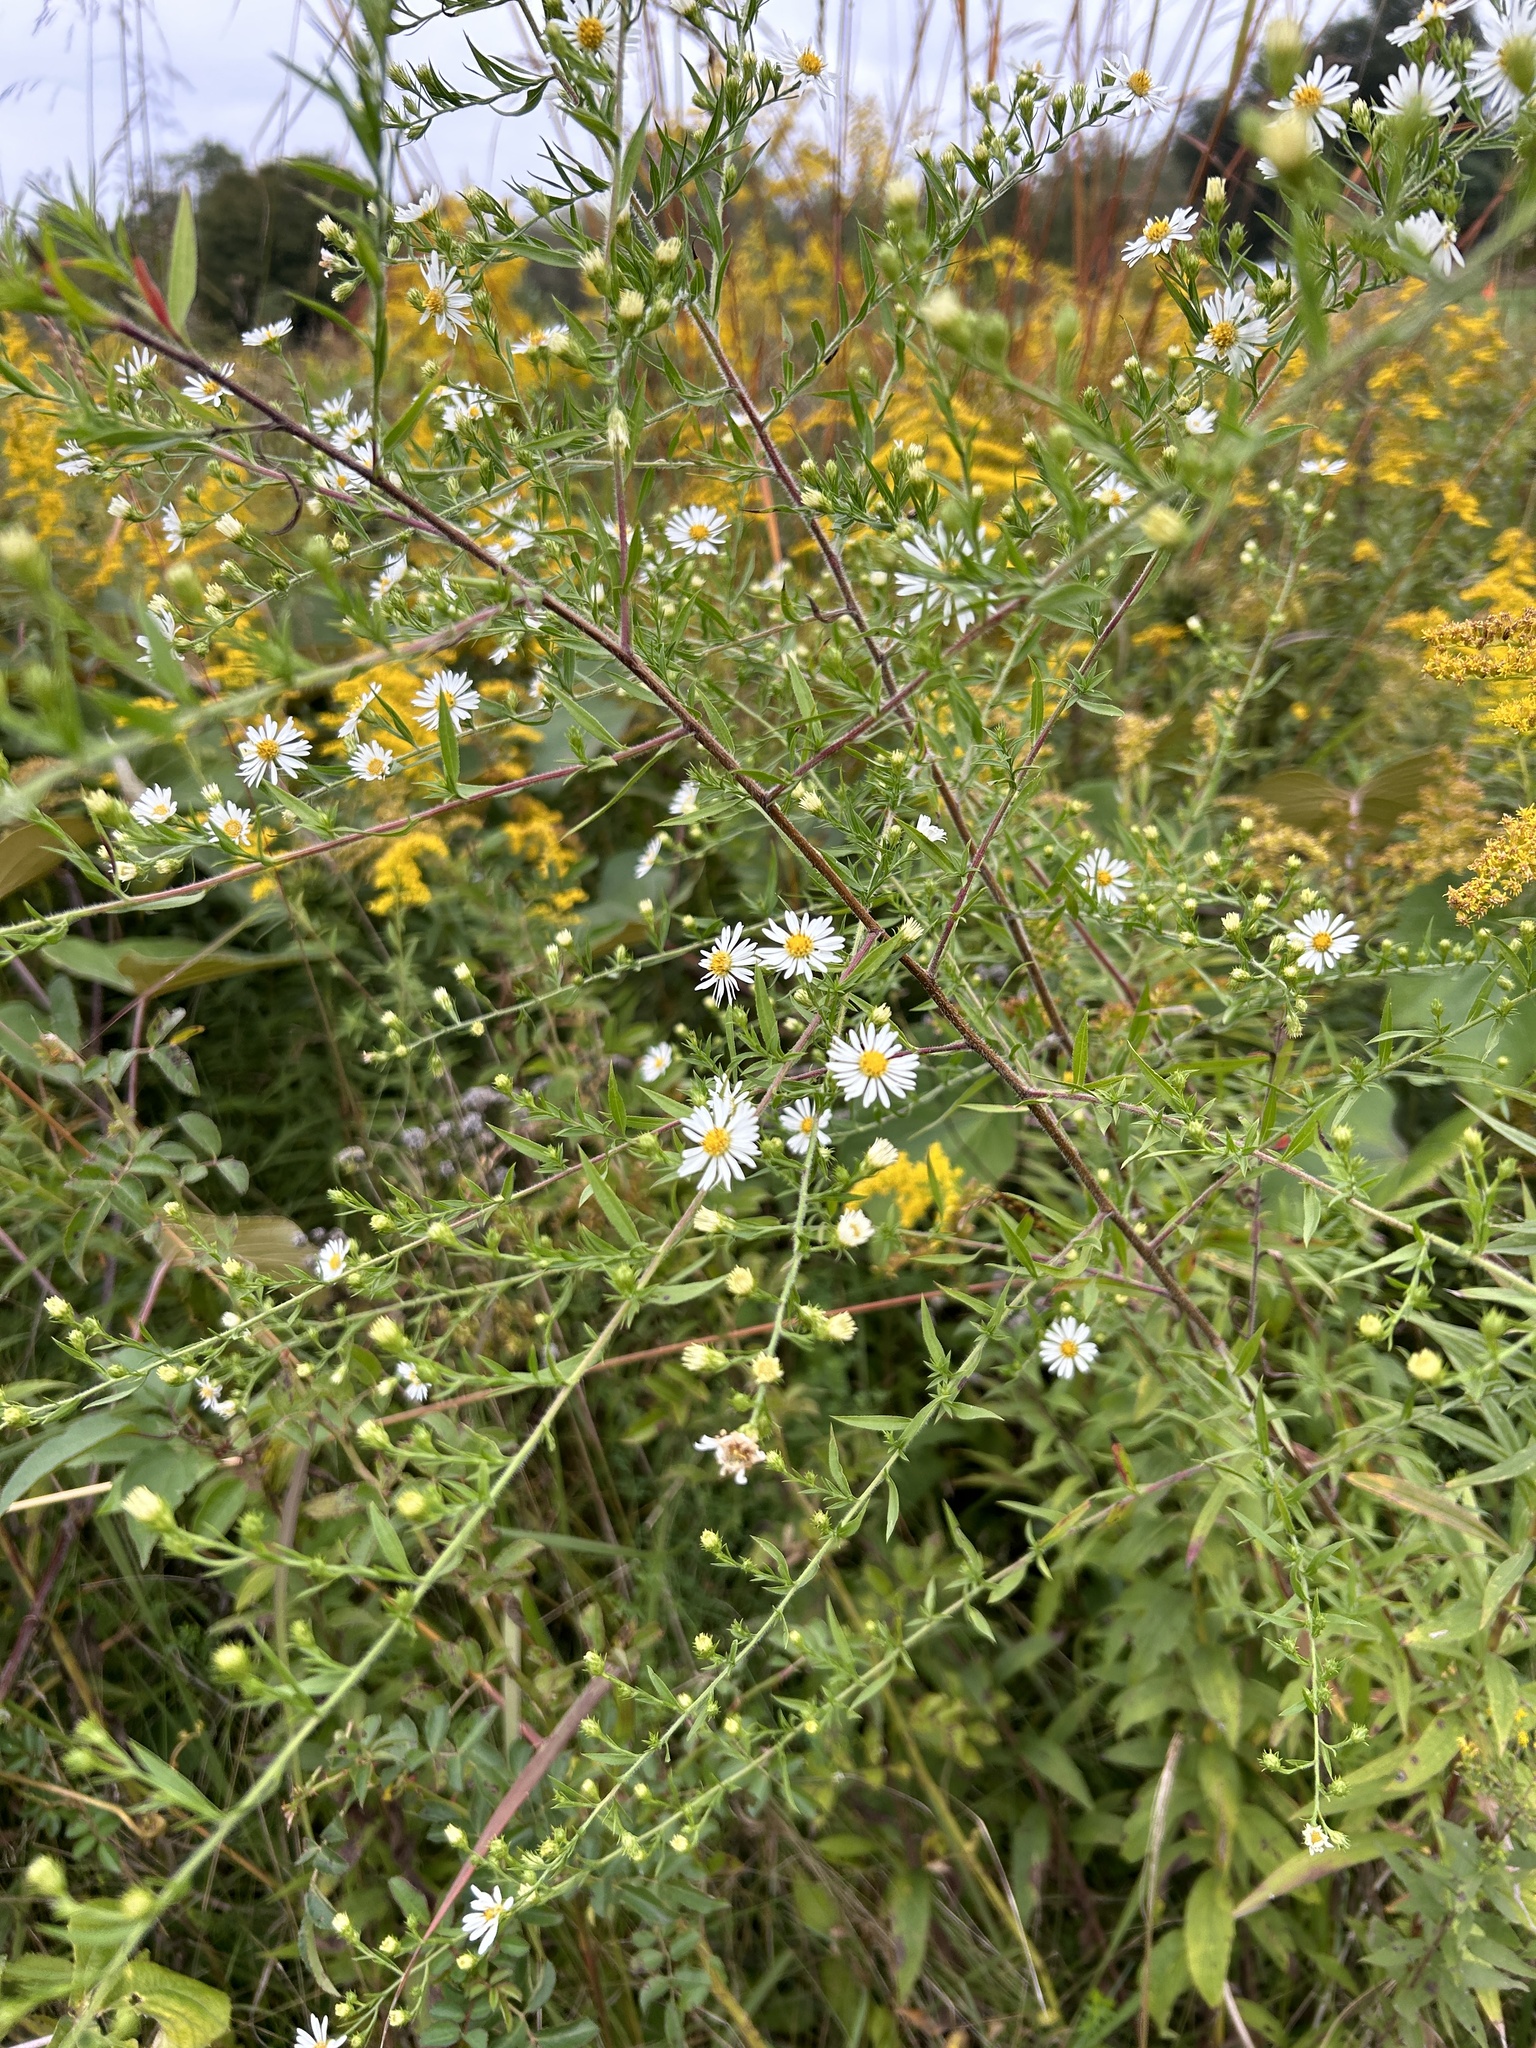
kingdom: Plantae
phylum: Tracheophyta
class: Magnoliopsida
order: Asterales
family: Asteraceae
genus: Symphyotrichum
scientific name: Symphyotrichum pilosum
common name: Awl aster
